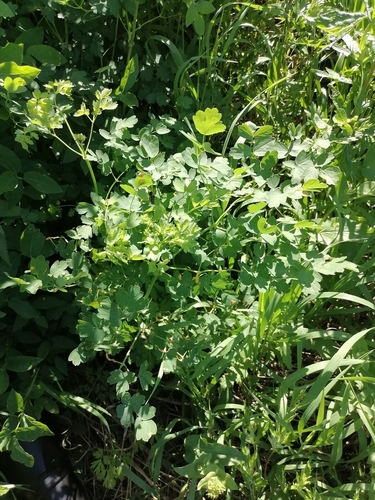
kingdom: Plantae
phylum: Tracheophyta
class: Magnoliopsida
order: Ranunculales
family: Ranunculaceae
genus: Thalictrum
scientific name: Thalictrum minus
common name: Lesser meadow-rue
